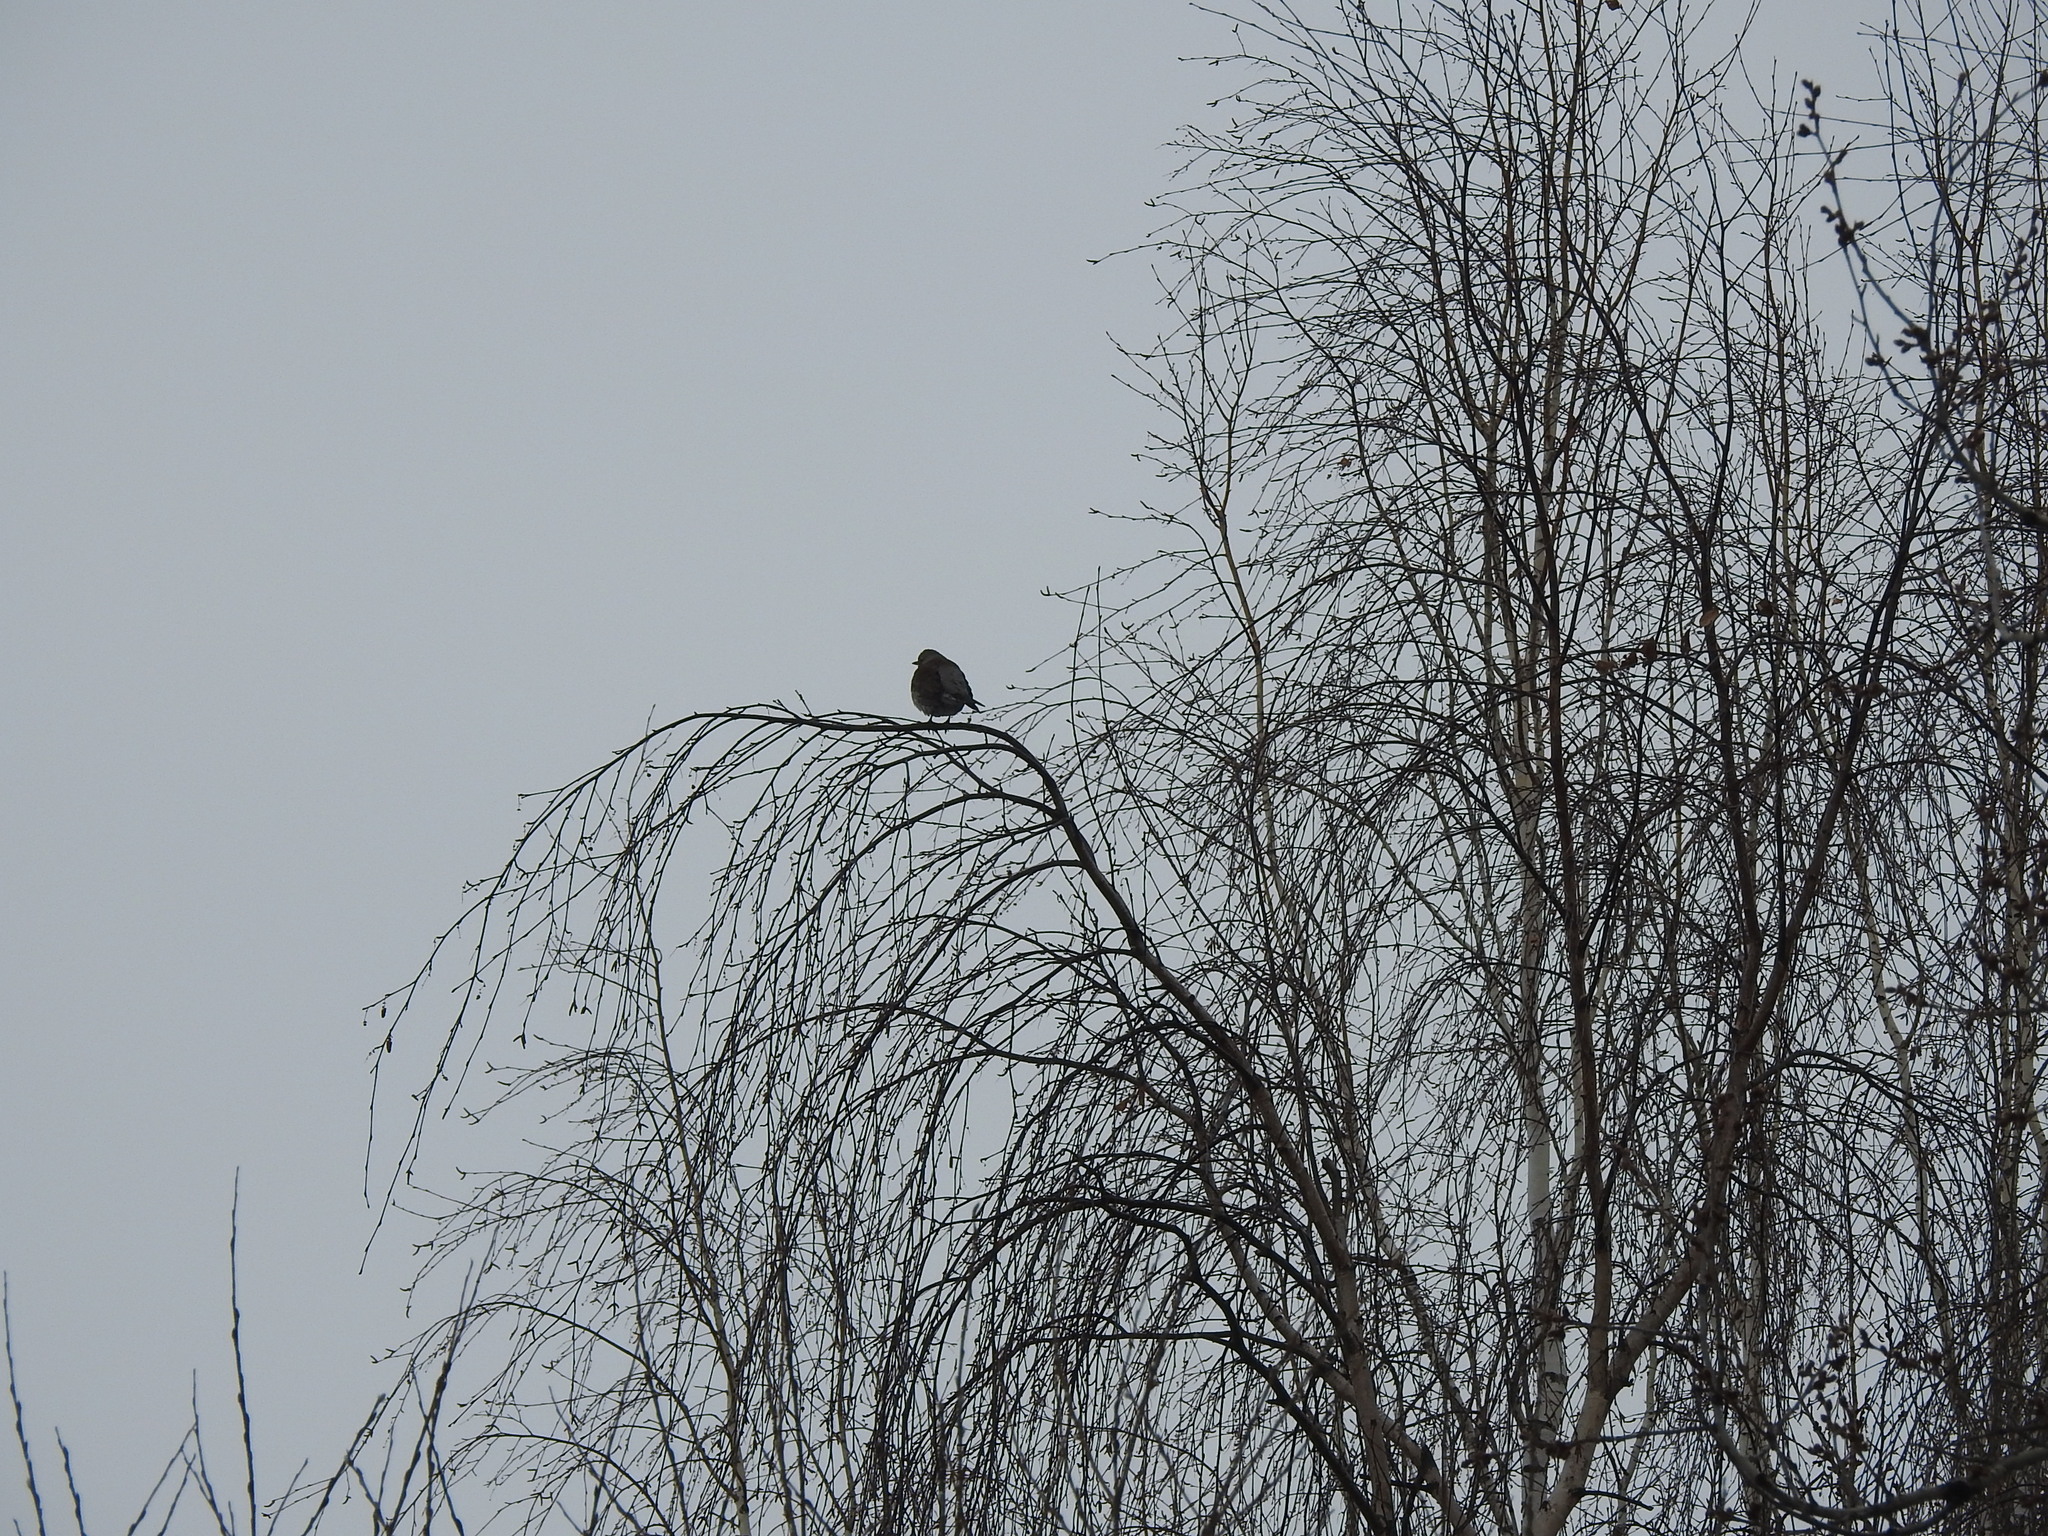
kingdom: Animalia
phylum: Chordata
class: Aves
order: Passeriformes
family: Turdidae
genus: Turdus
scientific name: Turdus pilaris
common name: Fieldfare
